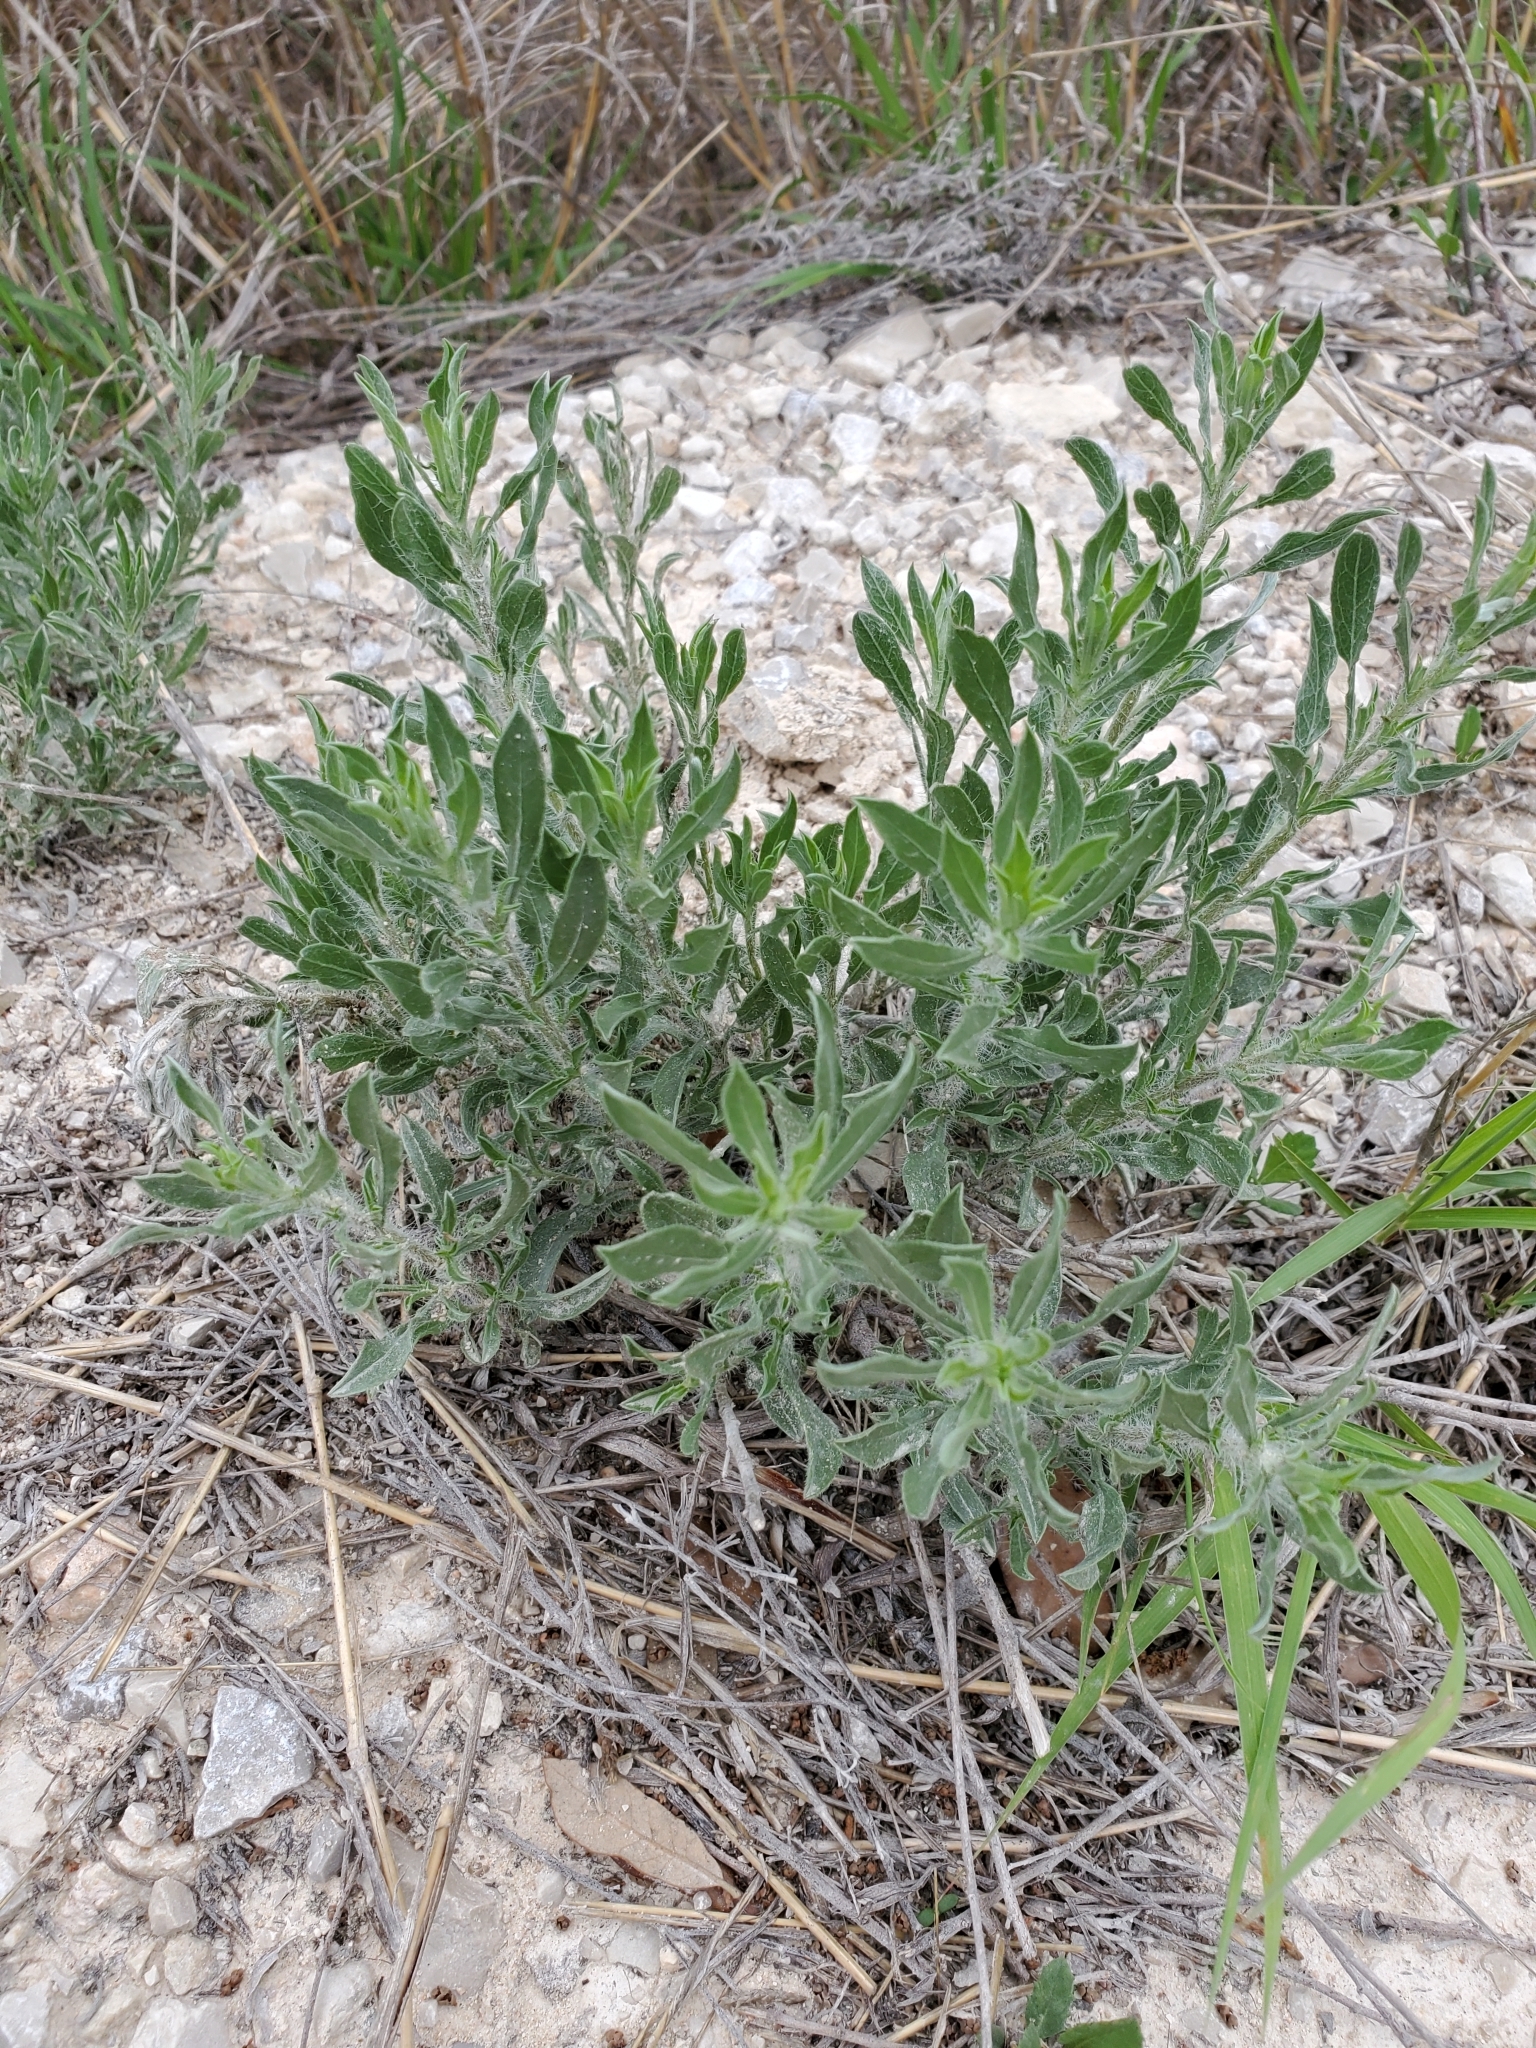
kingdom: Plantae
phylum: Tracheophyta
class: Magnoliopsida
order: Asterales
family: Asteraceae
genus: Heterotheca
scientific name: Heterotheca canescens
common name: Hoary golden-aster
